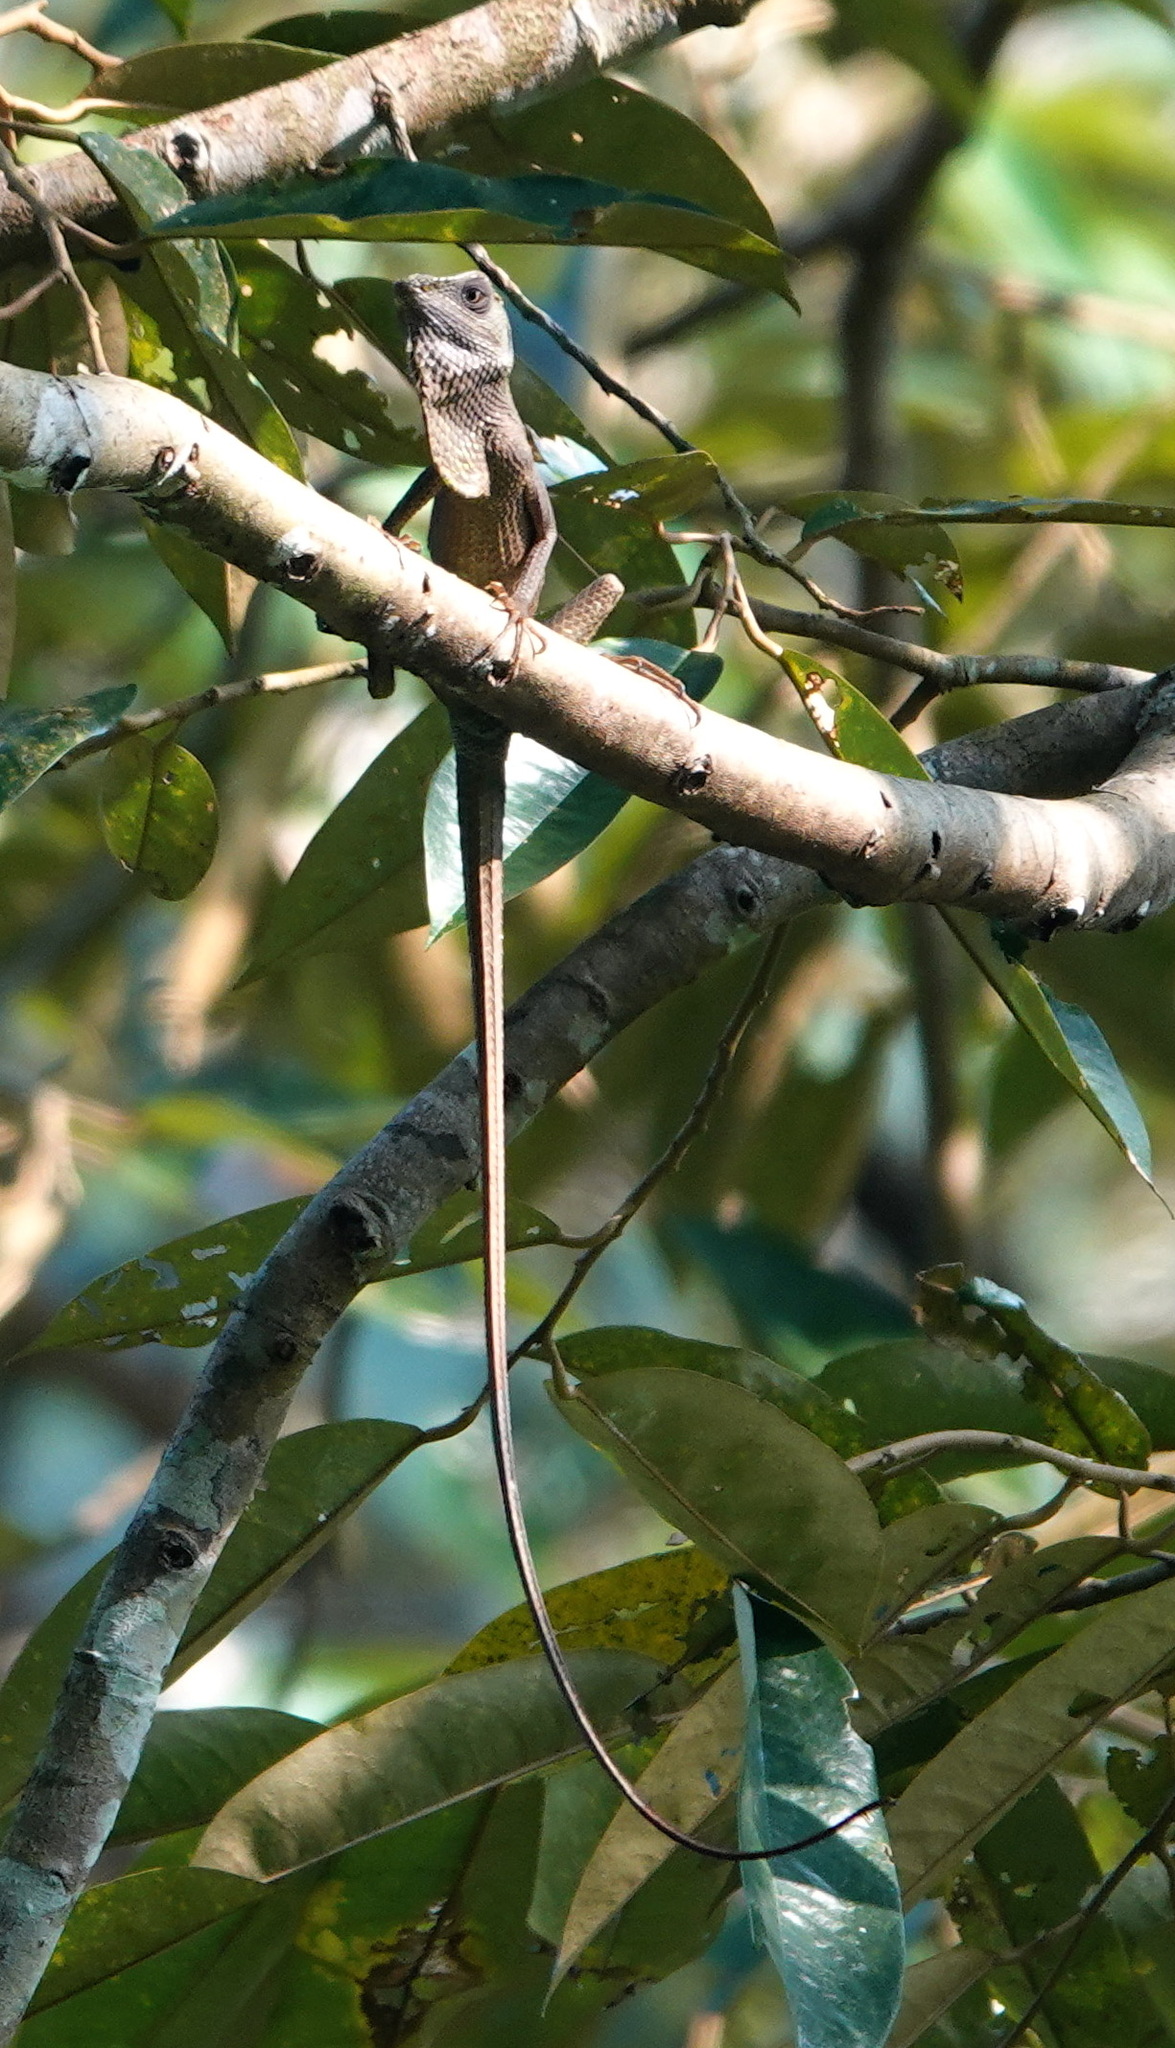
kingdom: Animalia
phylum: Chordata
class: Squamata
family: Agamidae
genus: Calotes
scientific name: Calotes versicolor
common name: Oriental garden lizard
